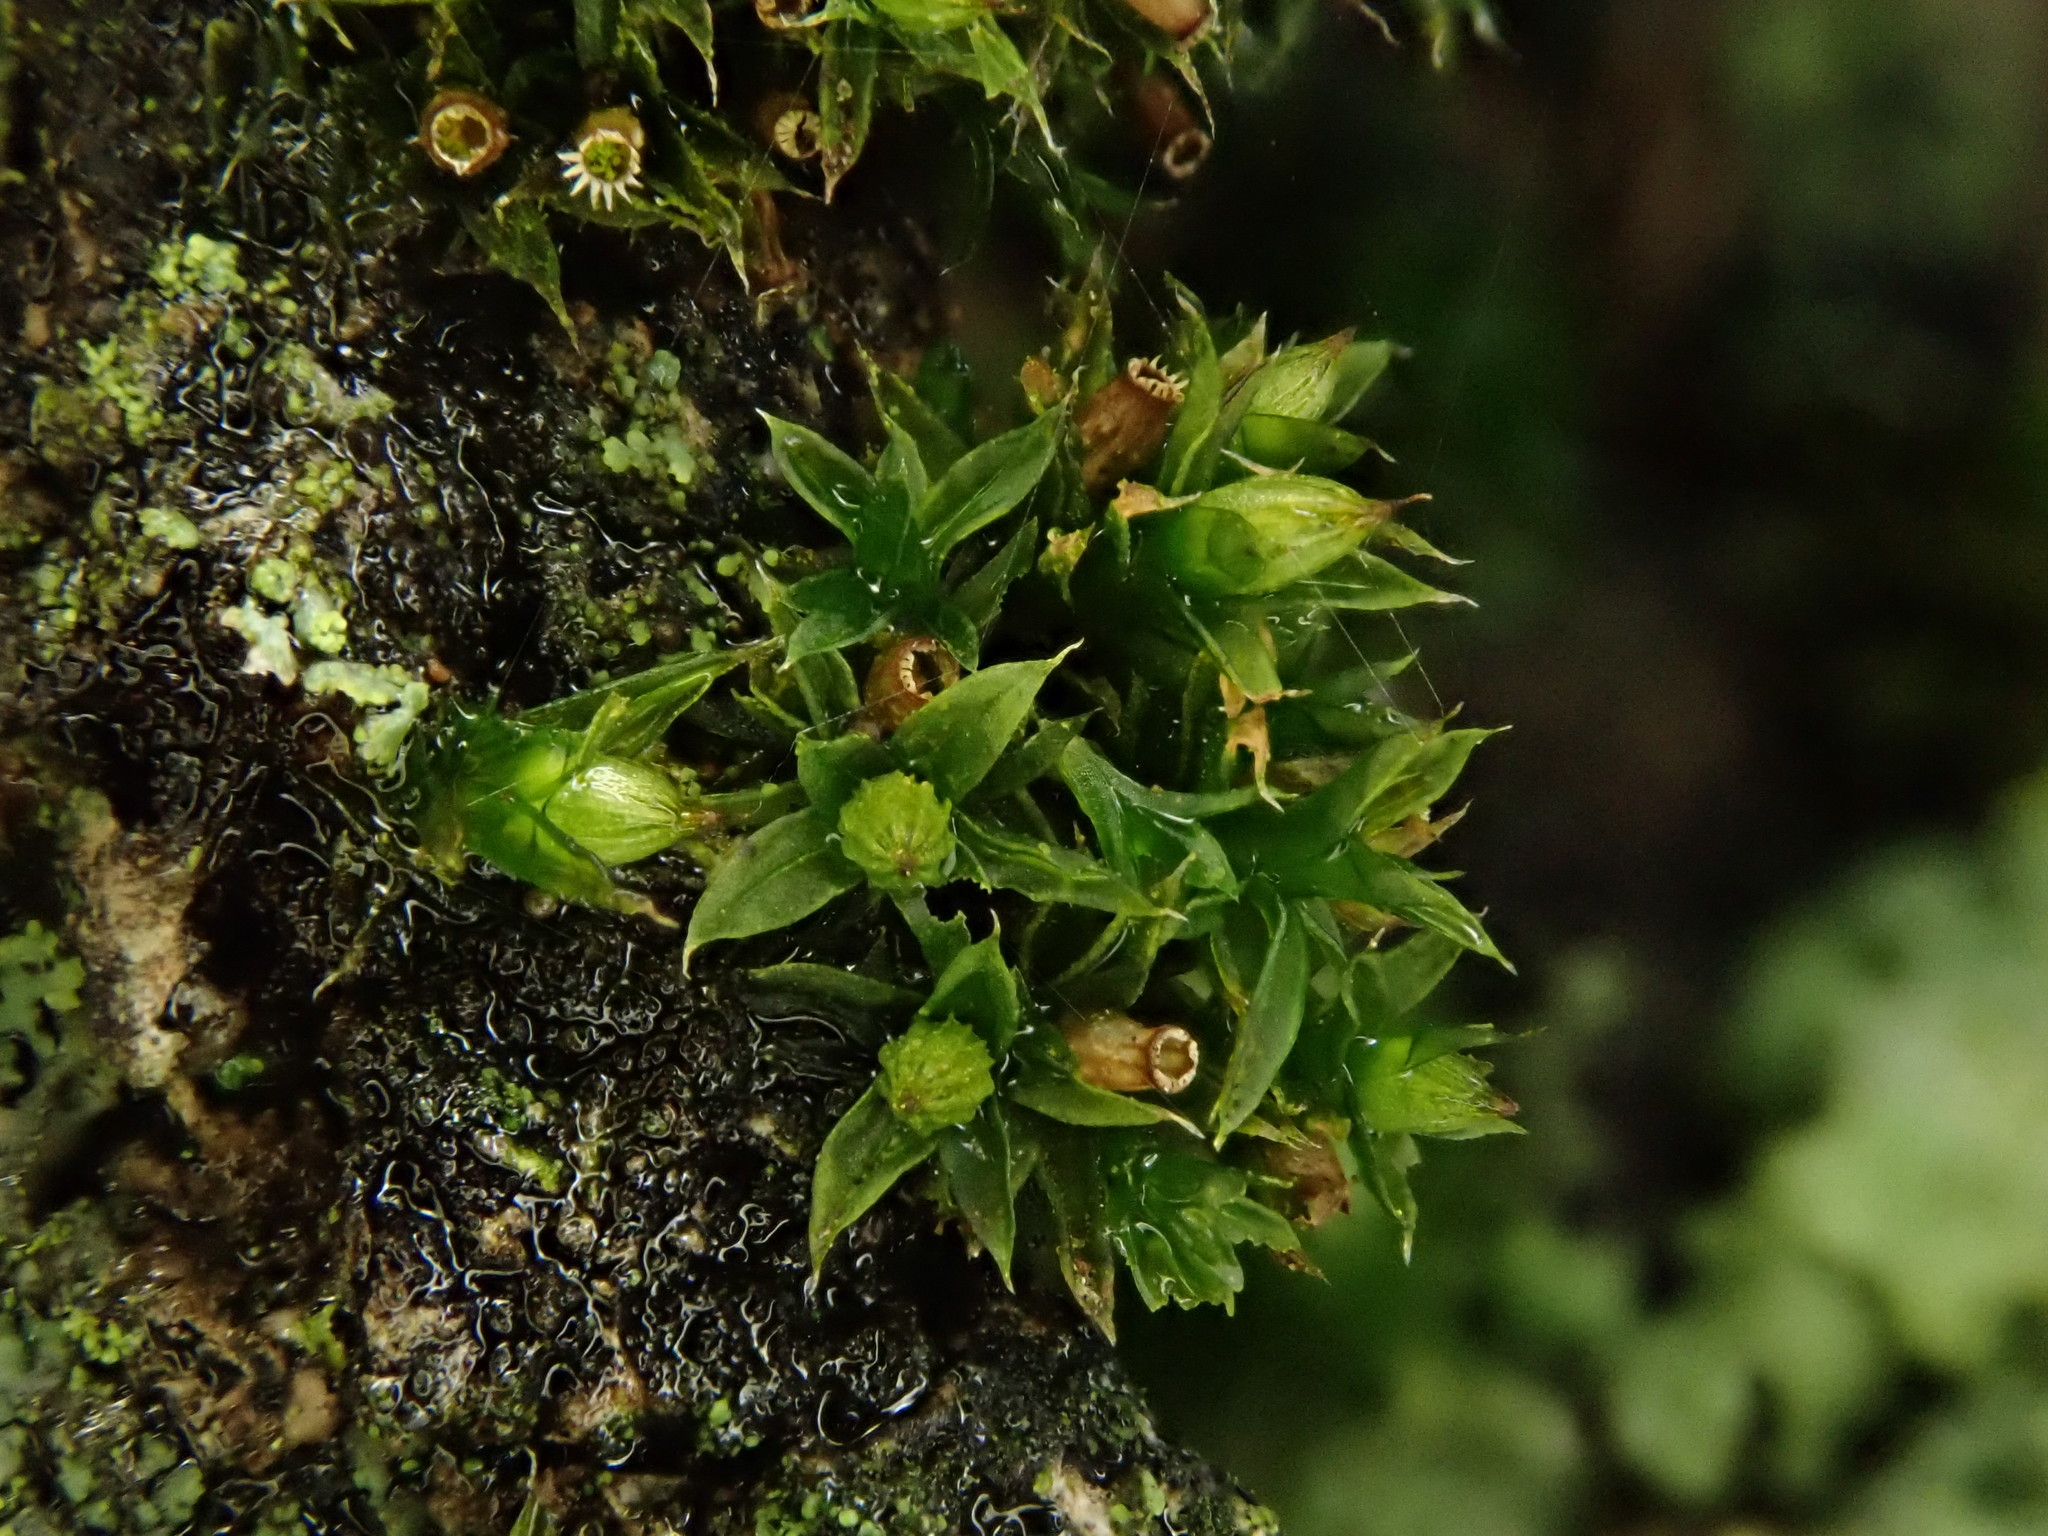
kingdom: Plantae
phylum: Bryophyta
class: Bryopsida
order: Orthotrichales
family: Orthotrichaceae
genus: Orthotrichum
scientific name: Orthotrichum diaphanum
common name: White-tipped bristle-moss
